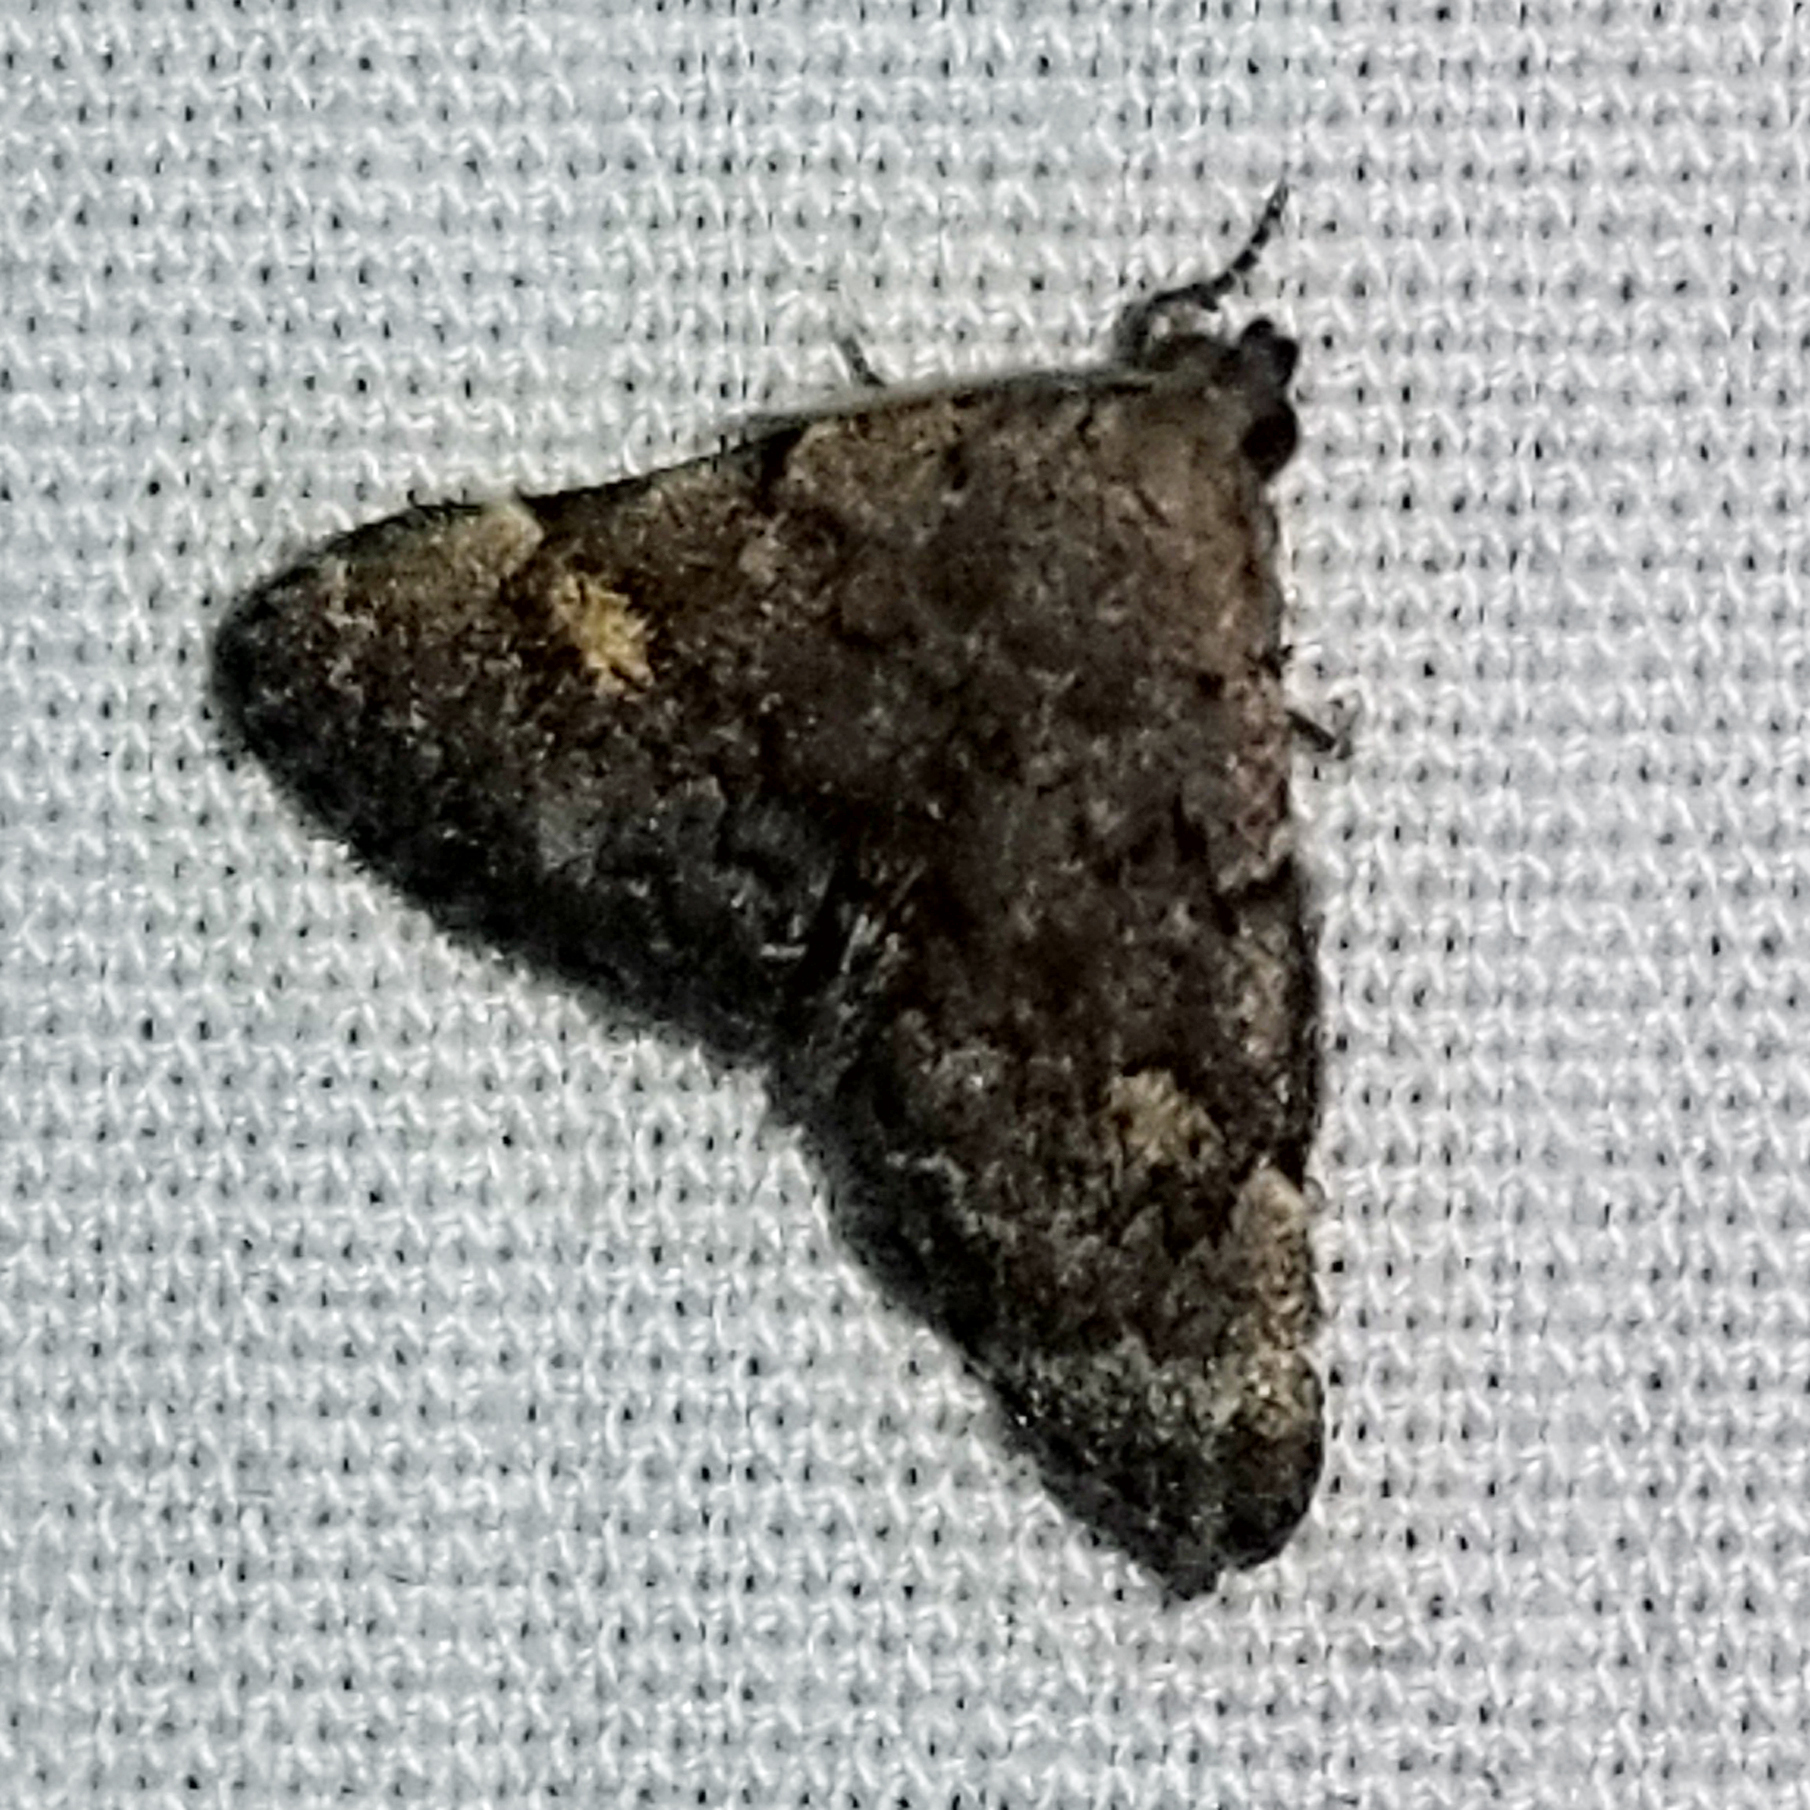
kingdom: Animalia
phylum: Arthropoda
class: Insecta
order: Lepidoptera
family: Erebidae
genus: Idia
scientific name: Idia aemula
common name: Common idia moth
